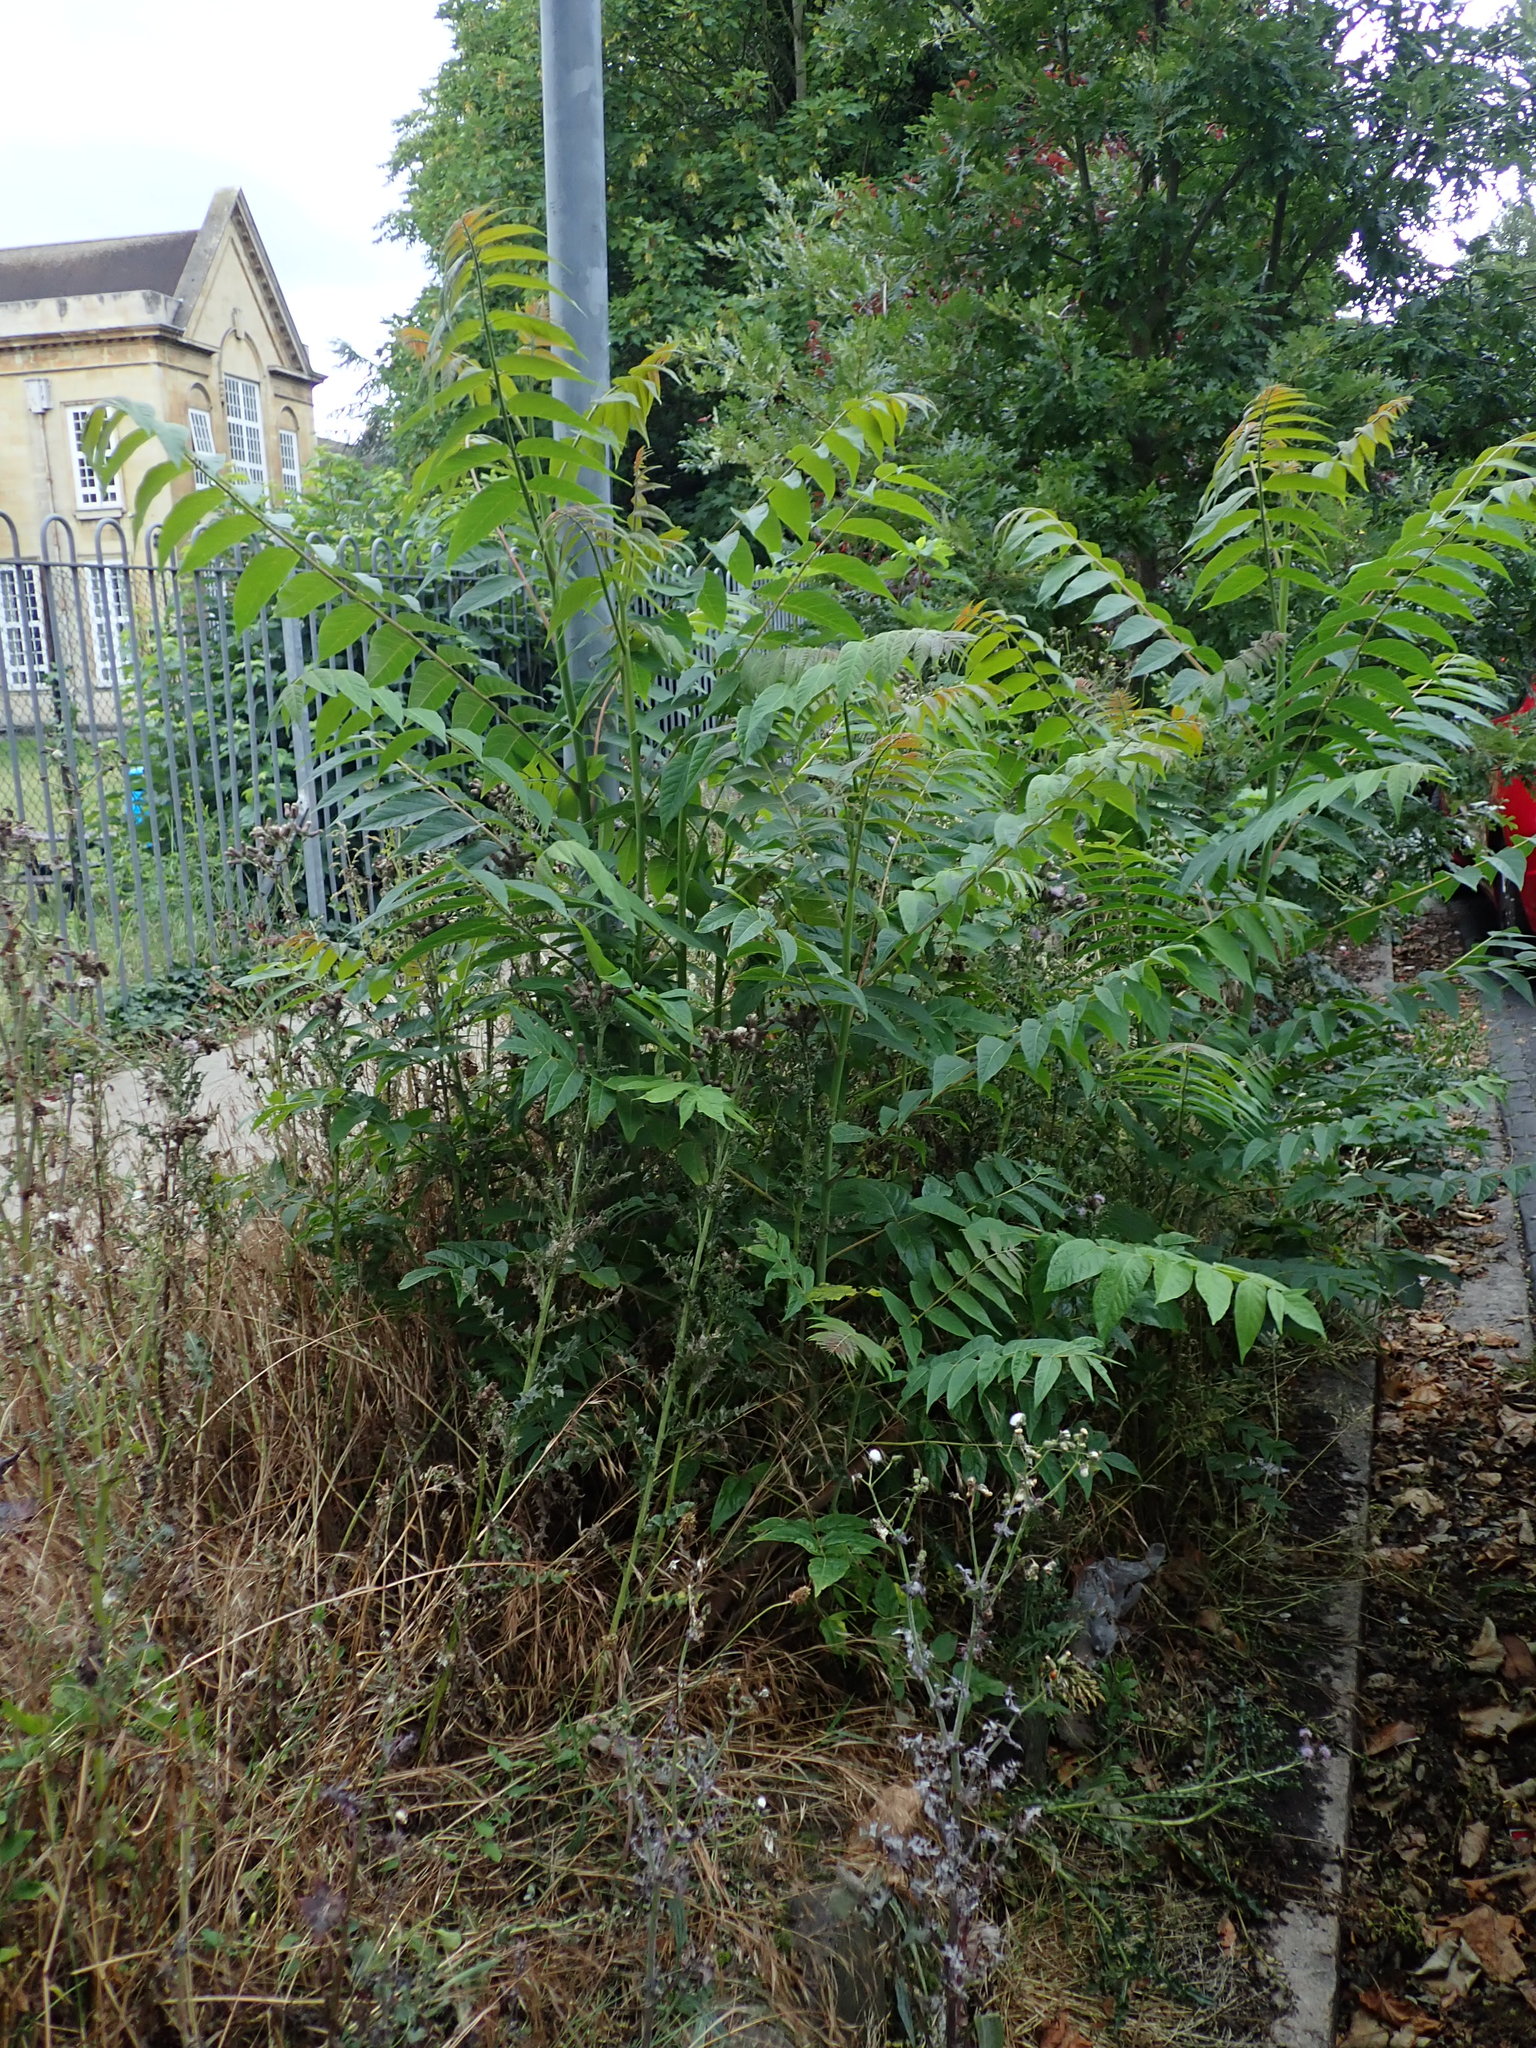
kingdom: Plantae
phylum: Tracheophyta
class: Magnoliopsida
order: Sapindales
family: Simaroubaceae
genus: Ailanthus
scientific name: Ailanthus altissima
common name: Tree-of-heaven
